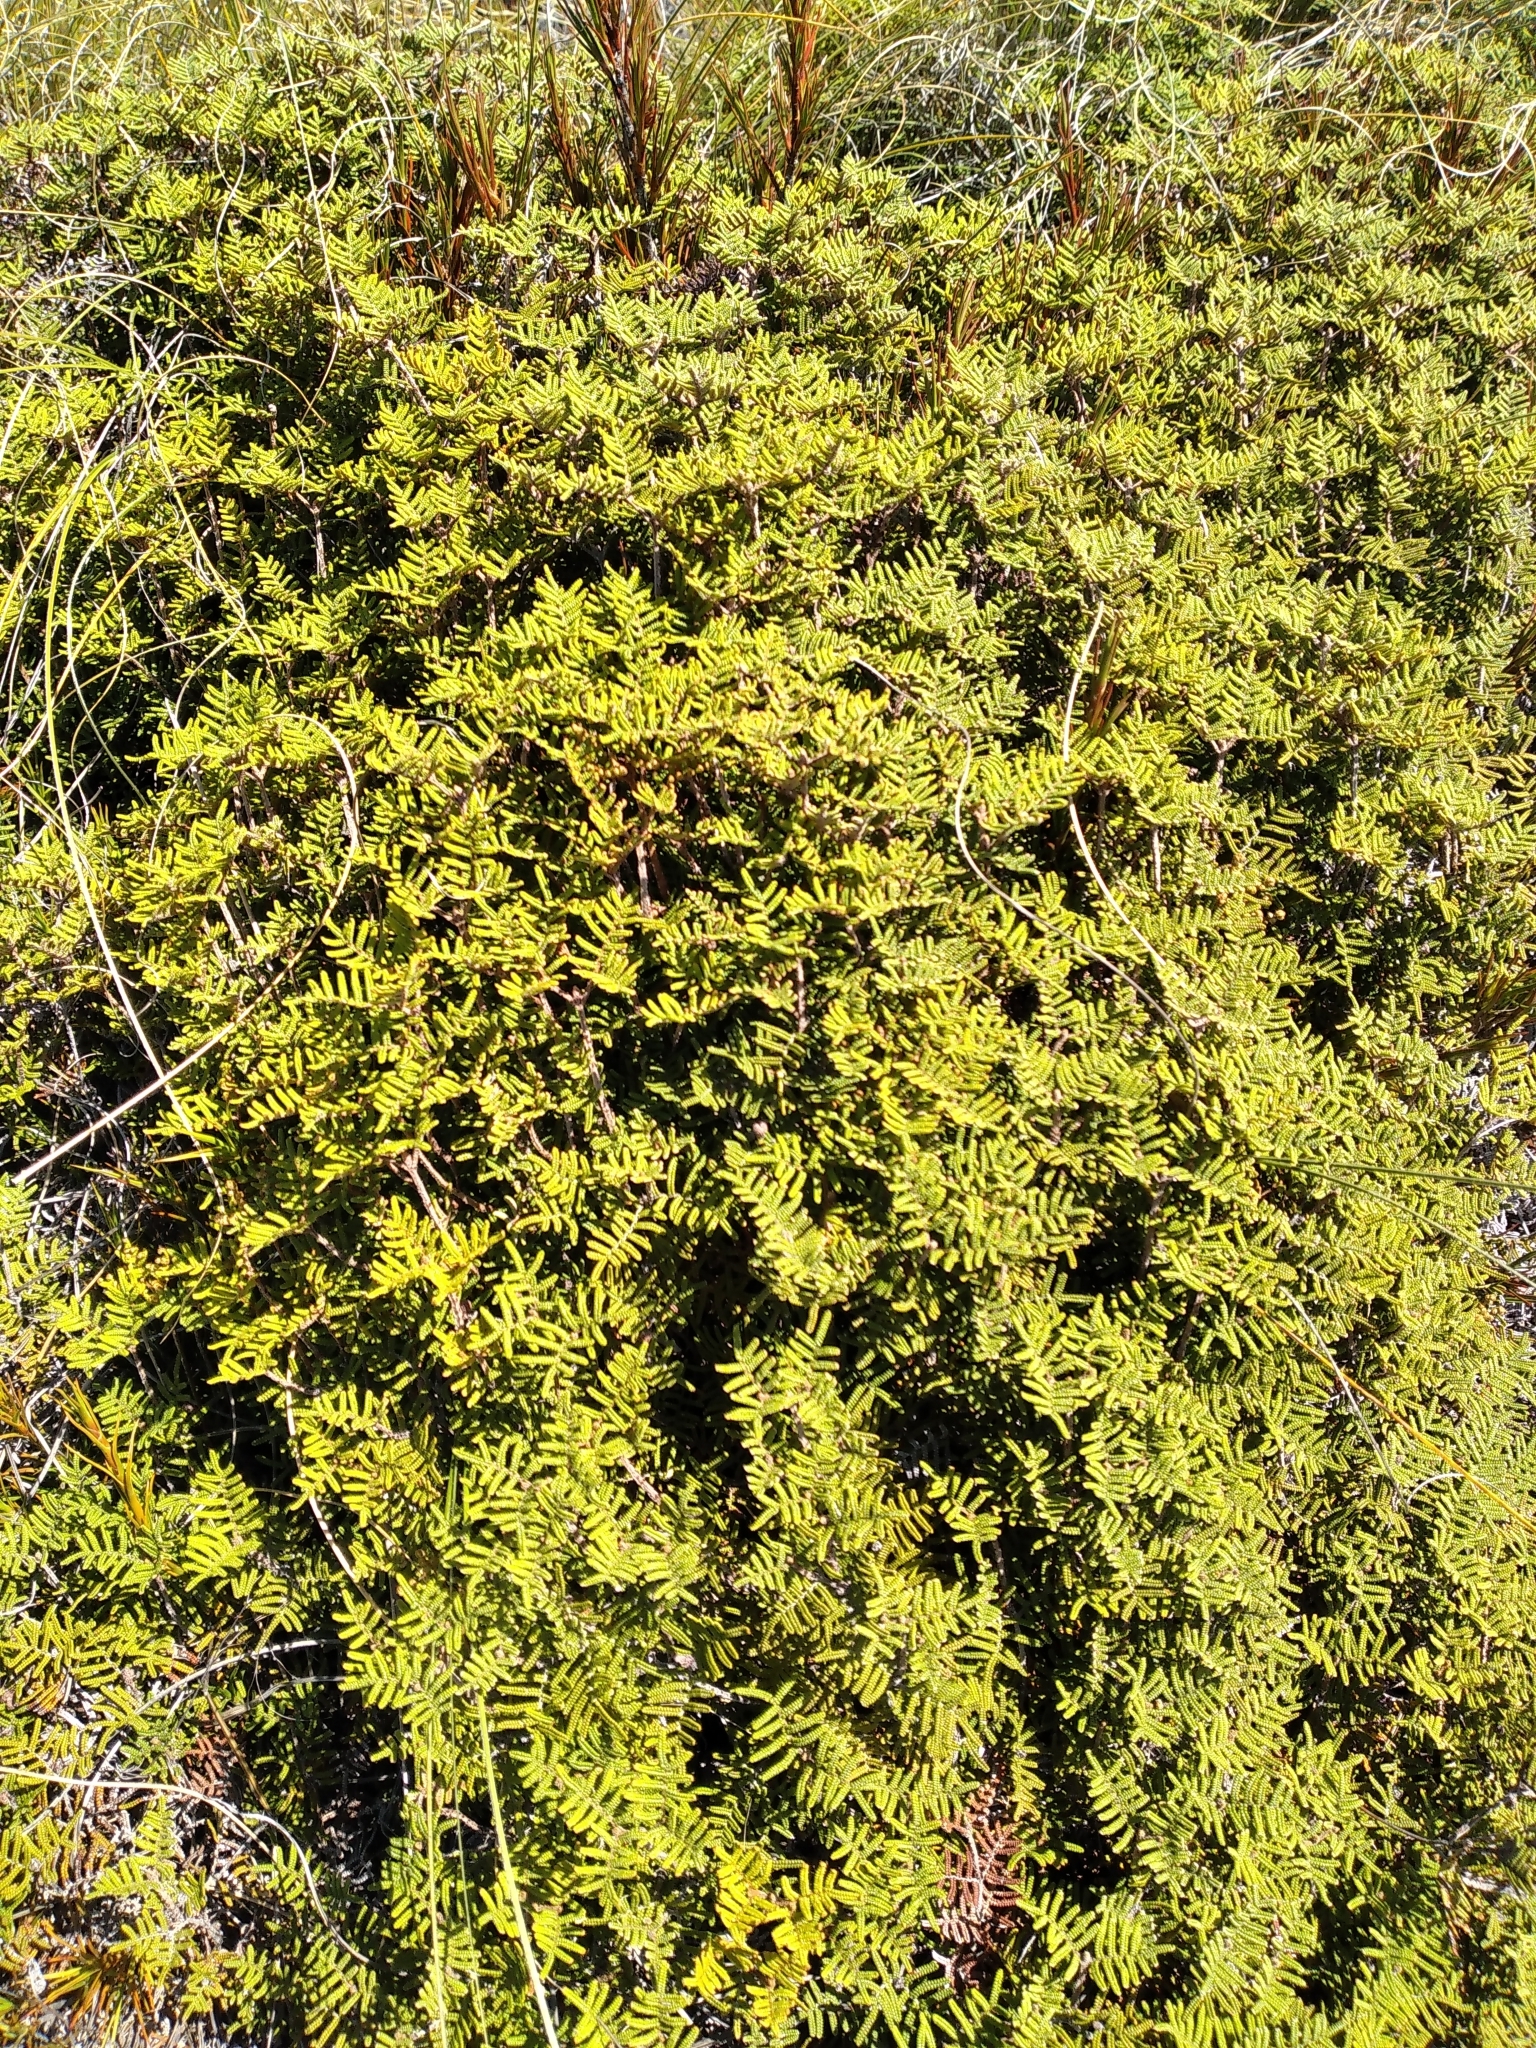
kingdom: Plantae
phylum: Tracheophyta
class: Polypodiopsida
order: Gleicheniales
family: Gleicheniaceae
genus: Gleichenia
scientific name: Gleichenia alpina
